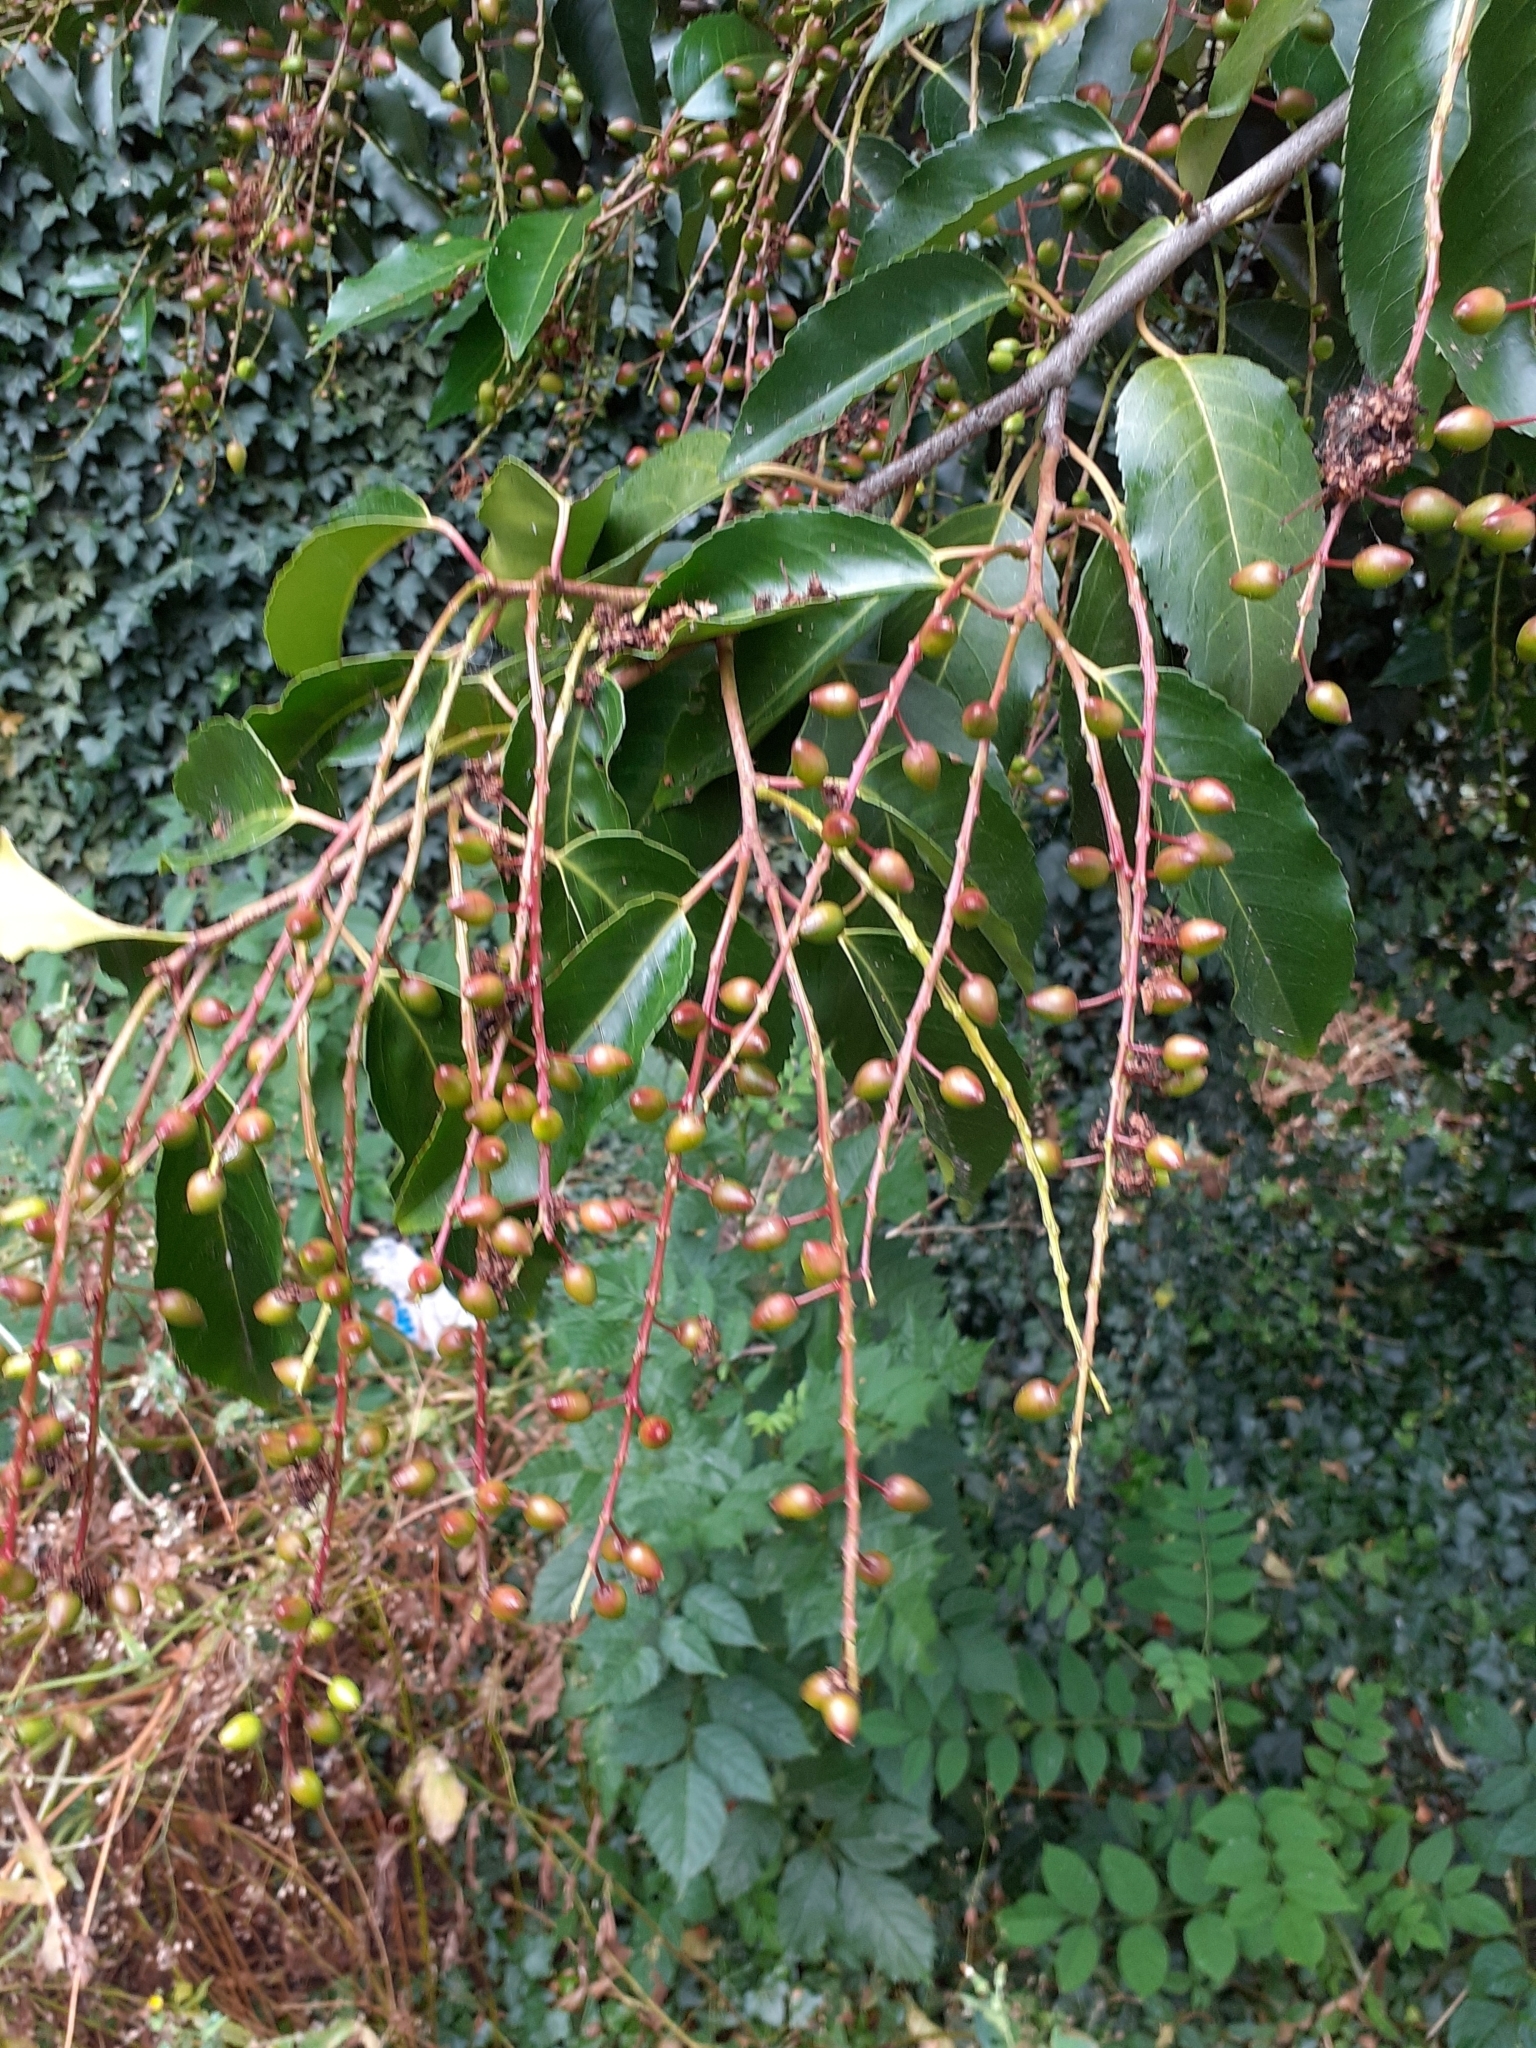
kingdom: Plantae
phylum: Tracheophyta
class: Magnoliopsida
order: Rosales
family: Rosaceae
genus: Prunus
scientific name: Prunus lusitanica
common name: Portugal laurel
